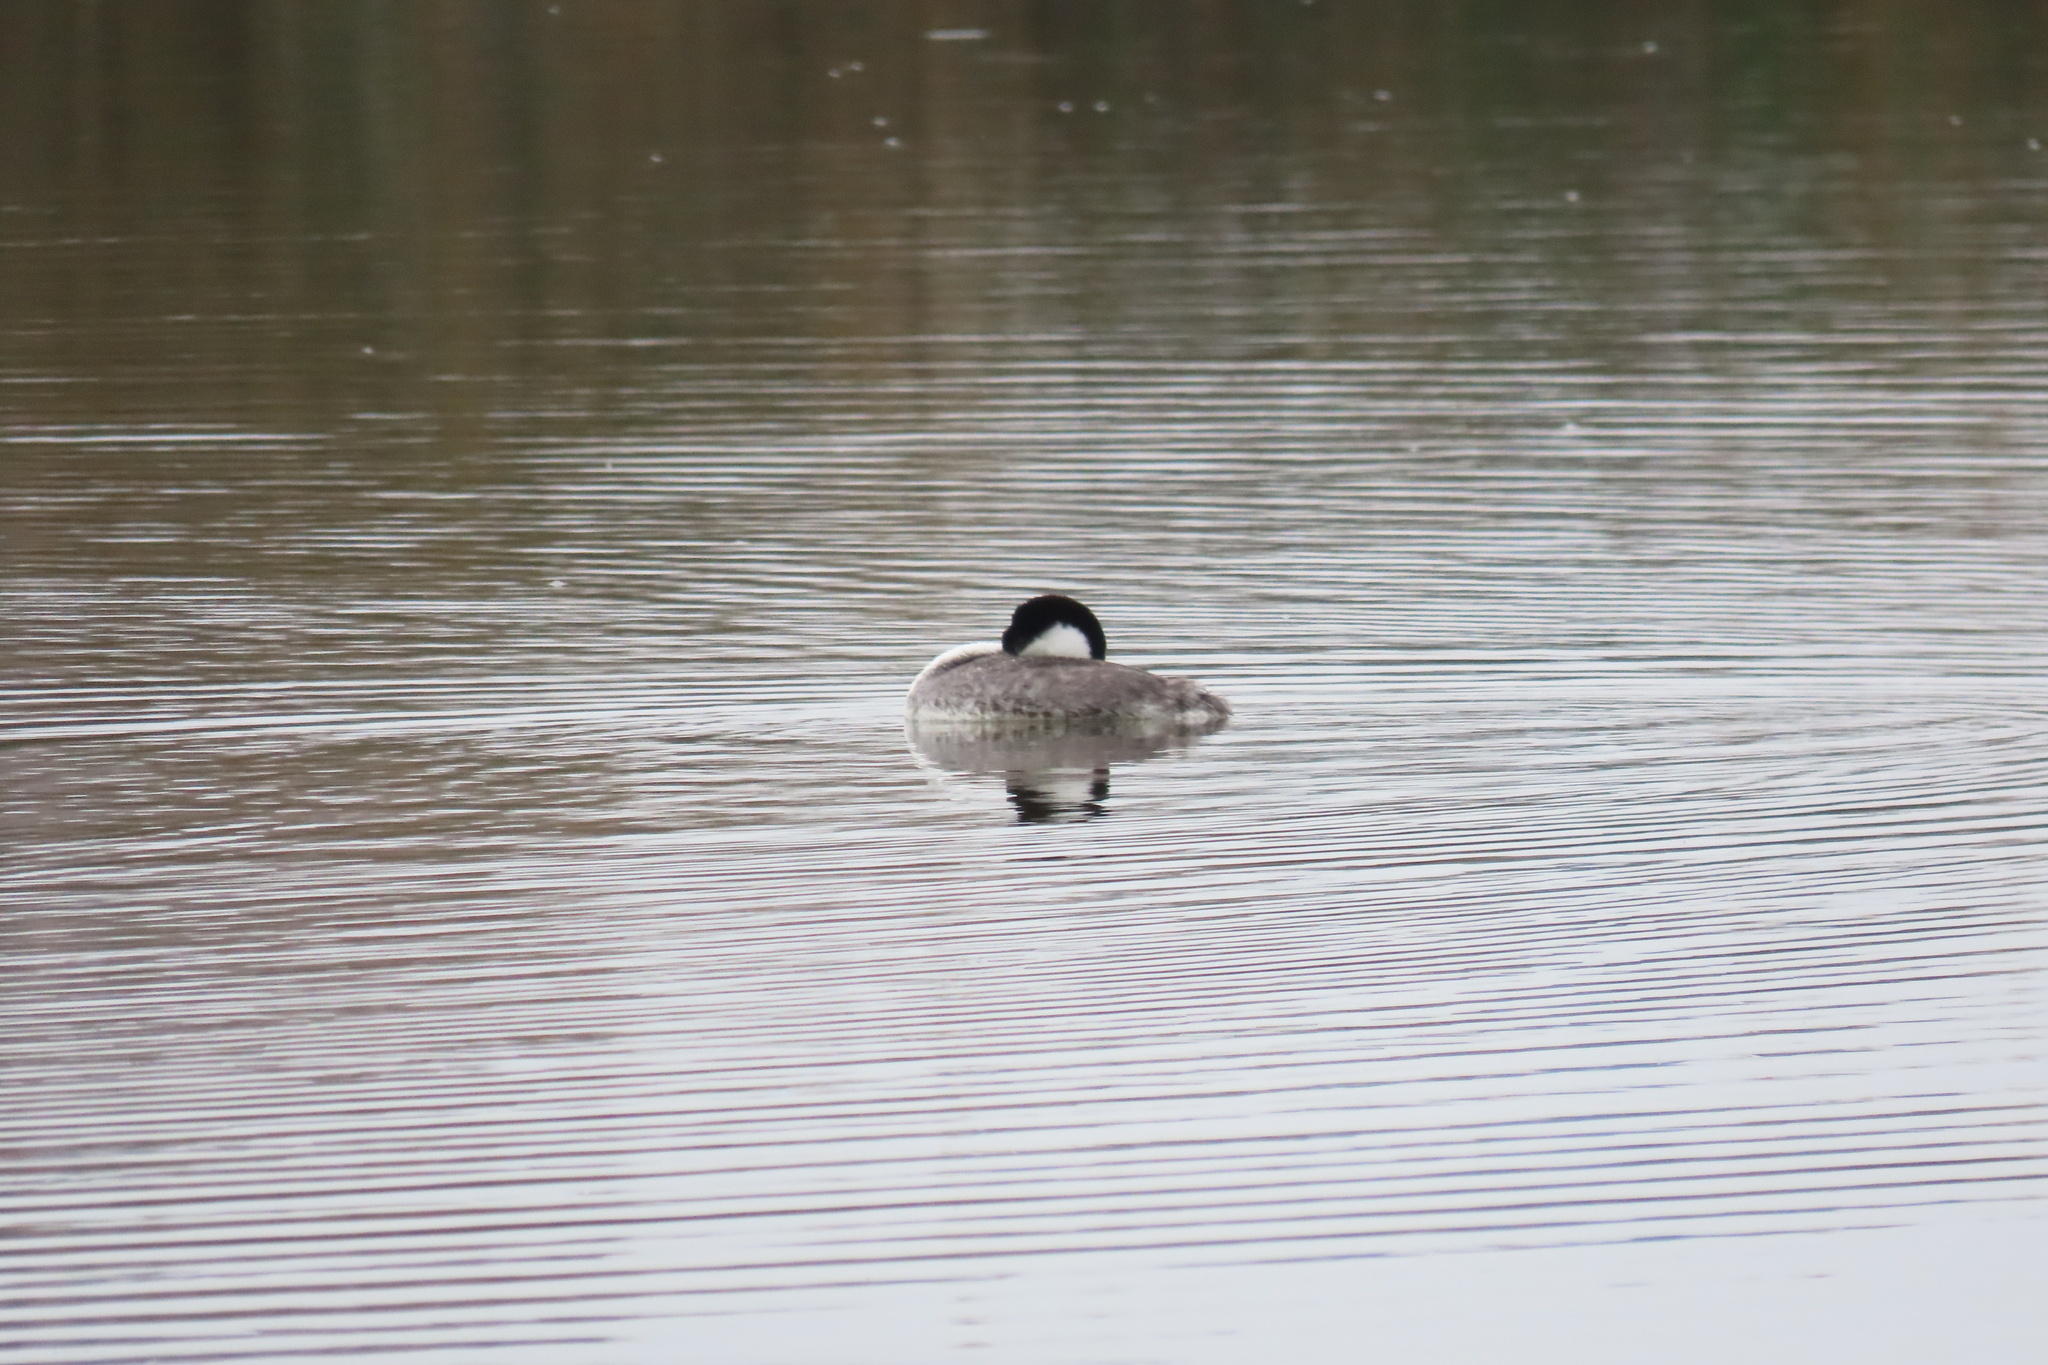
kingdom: Animalia
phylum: Chordata
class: Aves
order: Podicipediformes
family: Podicipedidae
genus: Aechmophorus
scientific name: Aechmophorus clarkii
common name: Clark's grebe
